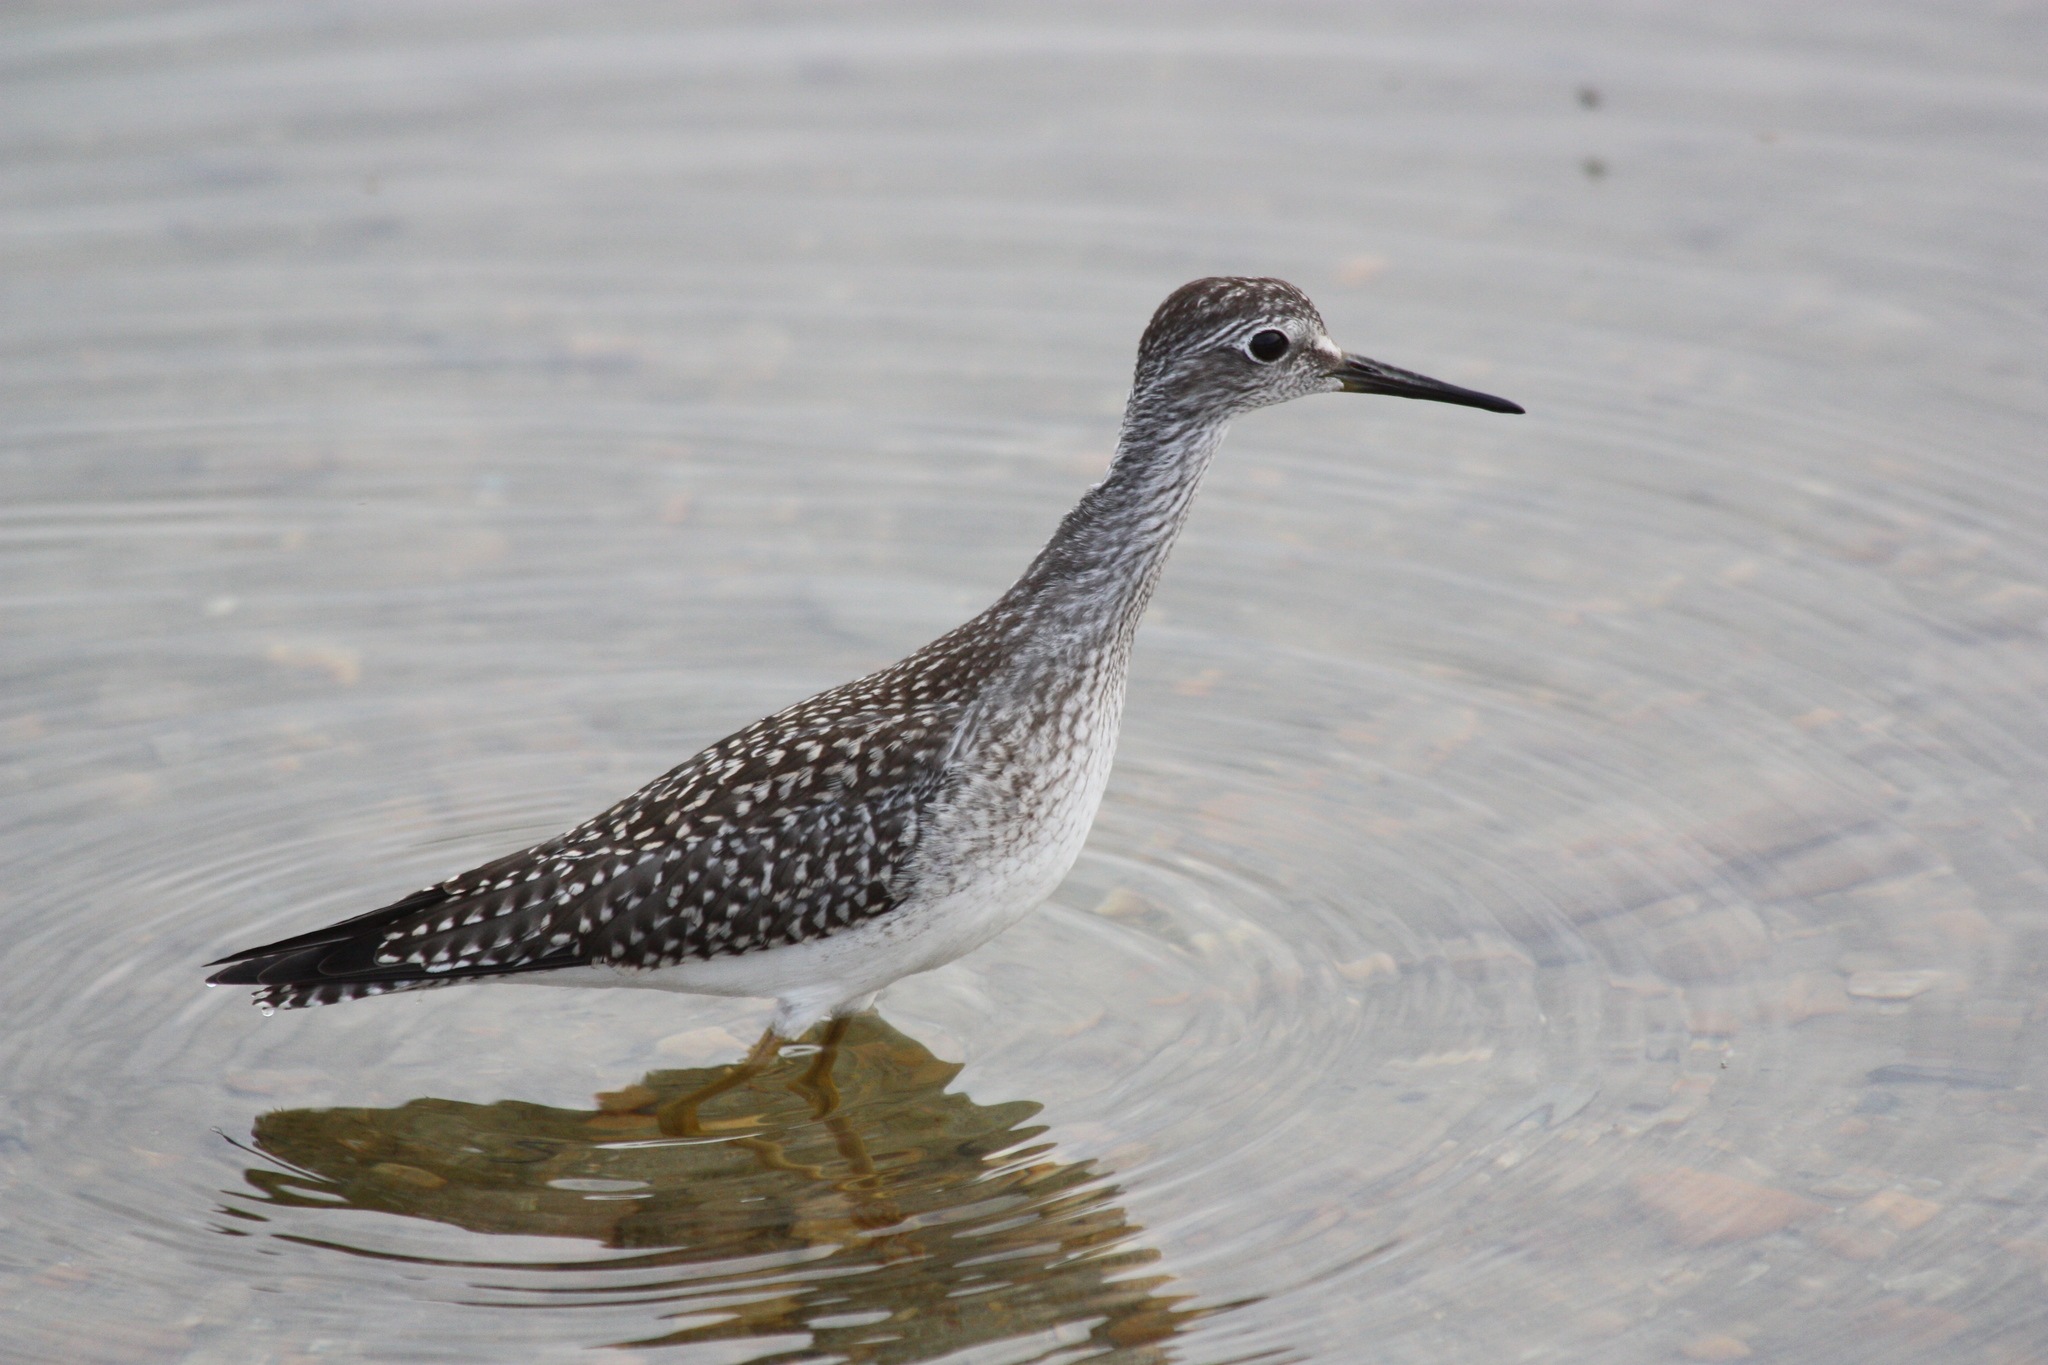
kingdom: Animalia
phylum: Chordata
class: Aves
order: Charadriiformes
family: Scolopacidae
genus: Tringa
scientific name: Tringa flavipes
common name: Lesser yellowlegs
